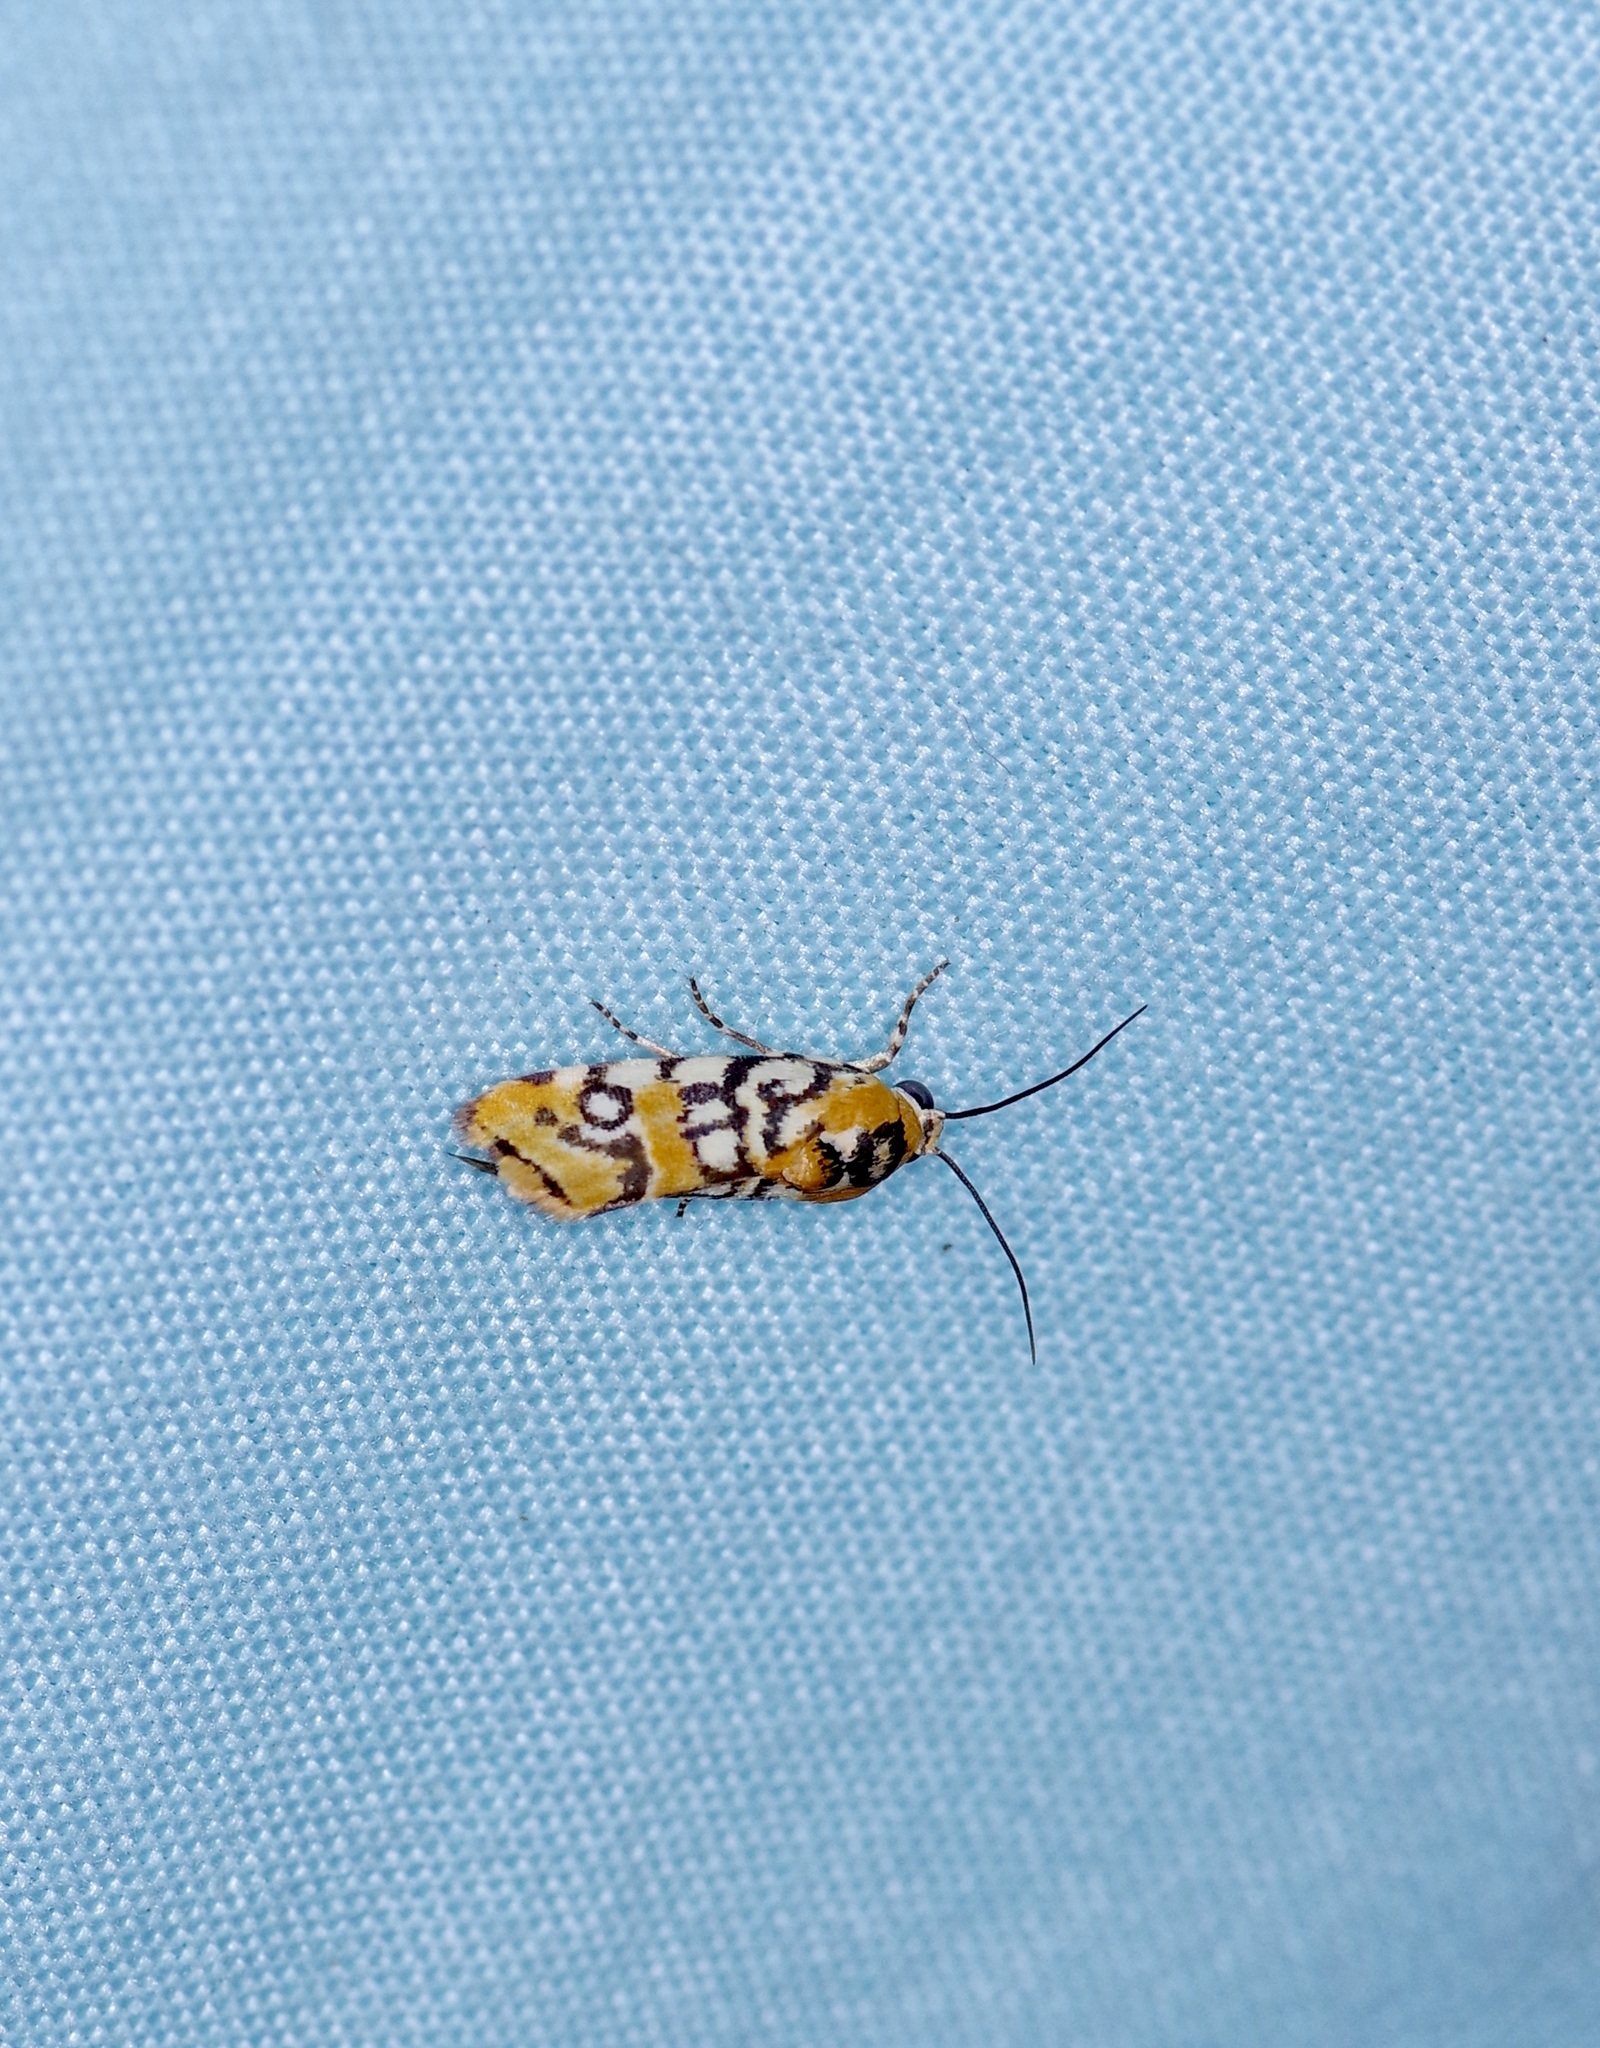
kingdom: Animalia
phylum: Arthropoda
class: Insecta
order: Lepidoptera
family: Noctuidae
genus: Spragueia
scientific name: Spragueia guttata
